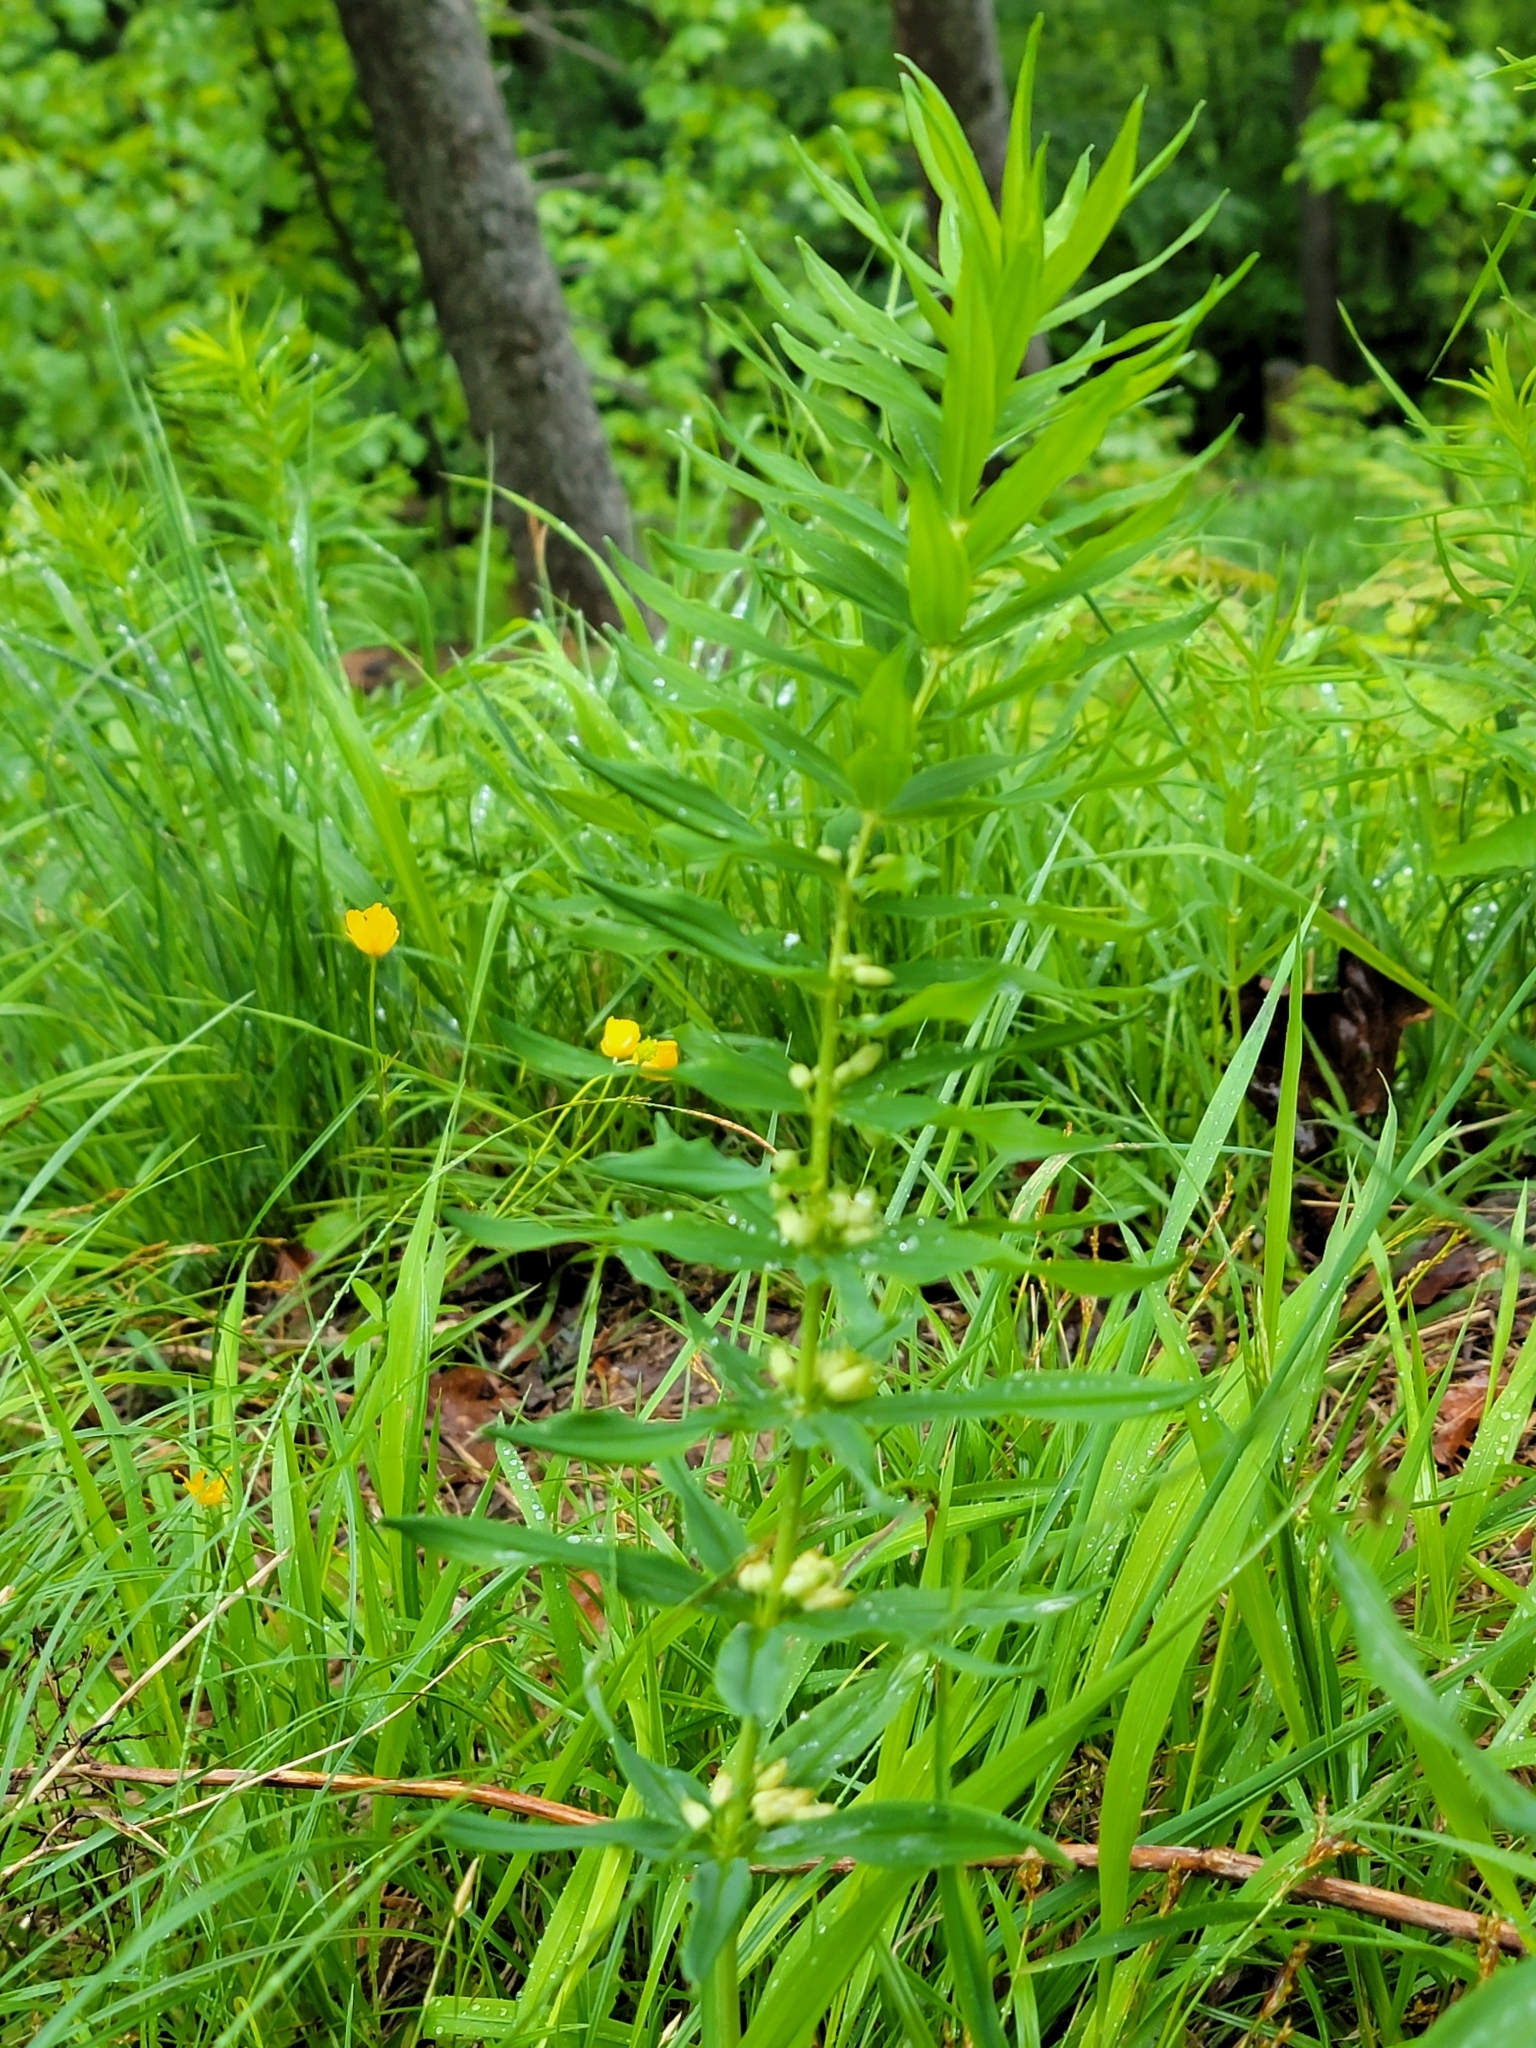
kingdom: Plantae
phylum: Tracheophyta
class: Liliopsida
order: Asparagales
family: Asparagaceae
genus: Polygonatum
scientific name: Polygonatum verticillatum
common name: Whorled solomon's-seal
